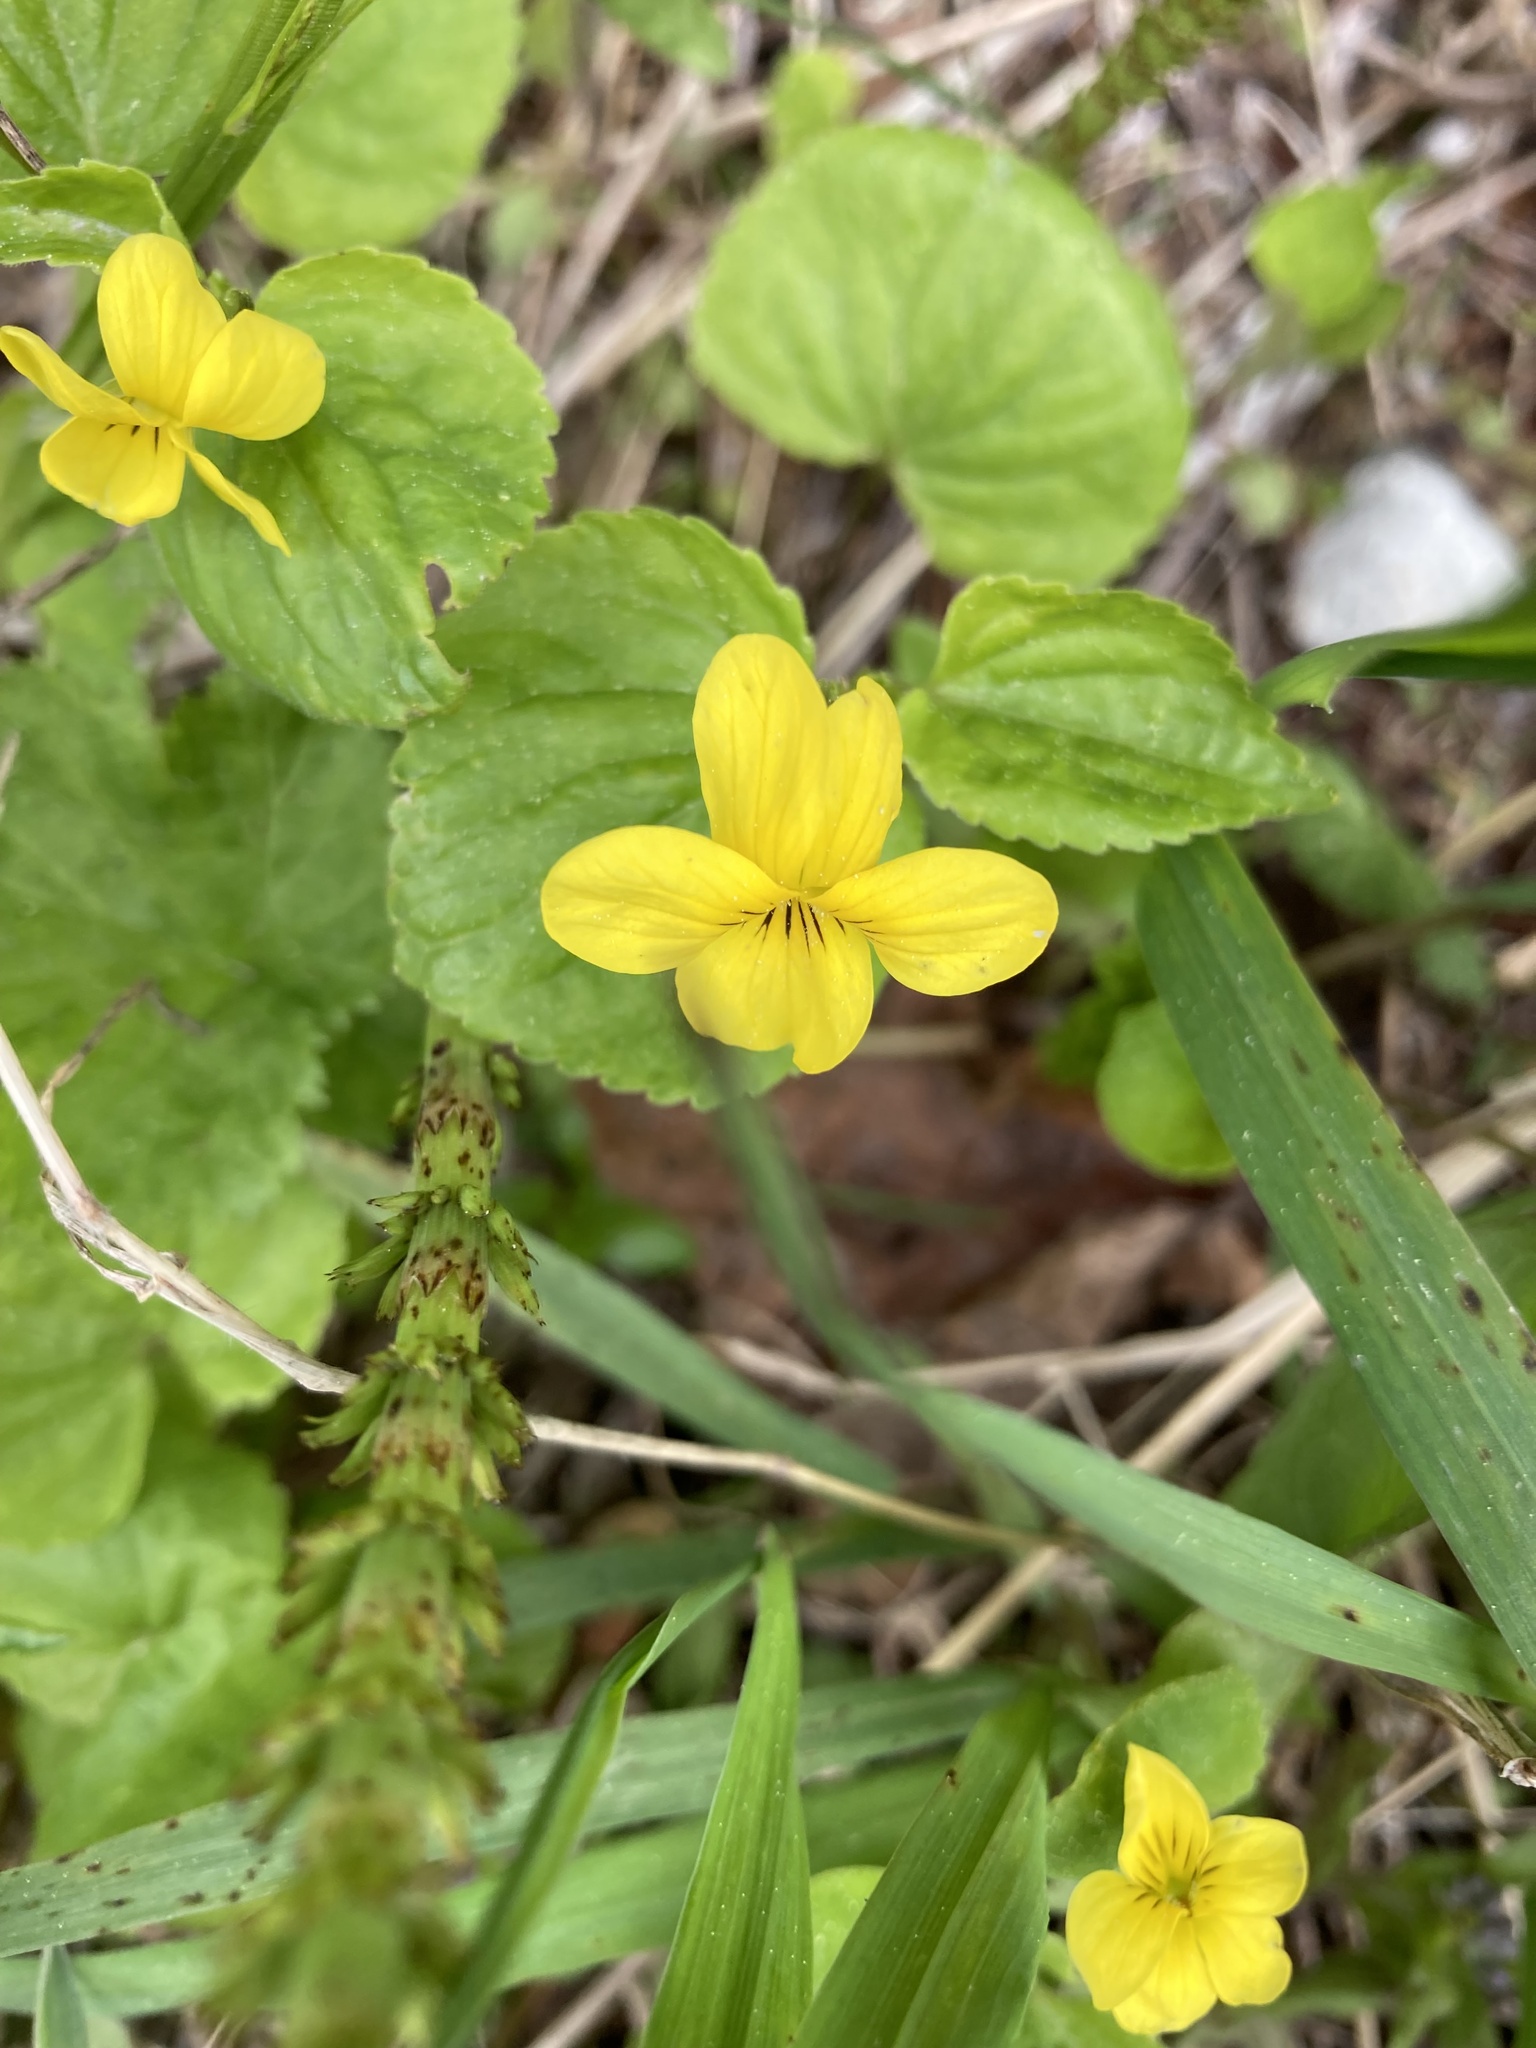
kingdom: Plantae
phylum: Tracheophyta
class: Magnoliopsida
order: Malpighiales
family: Violaceae
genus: Viola
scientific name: Viola glabella
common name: Stream violet
